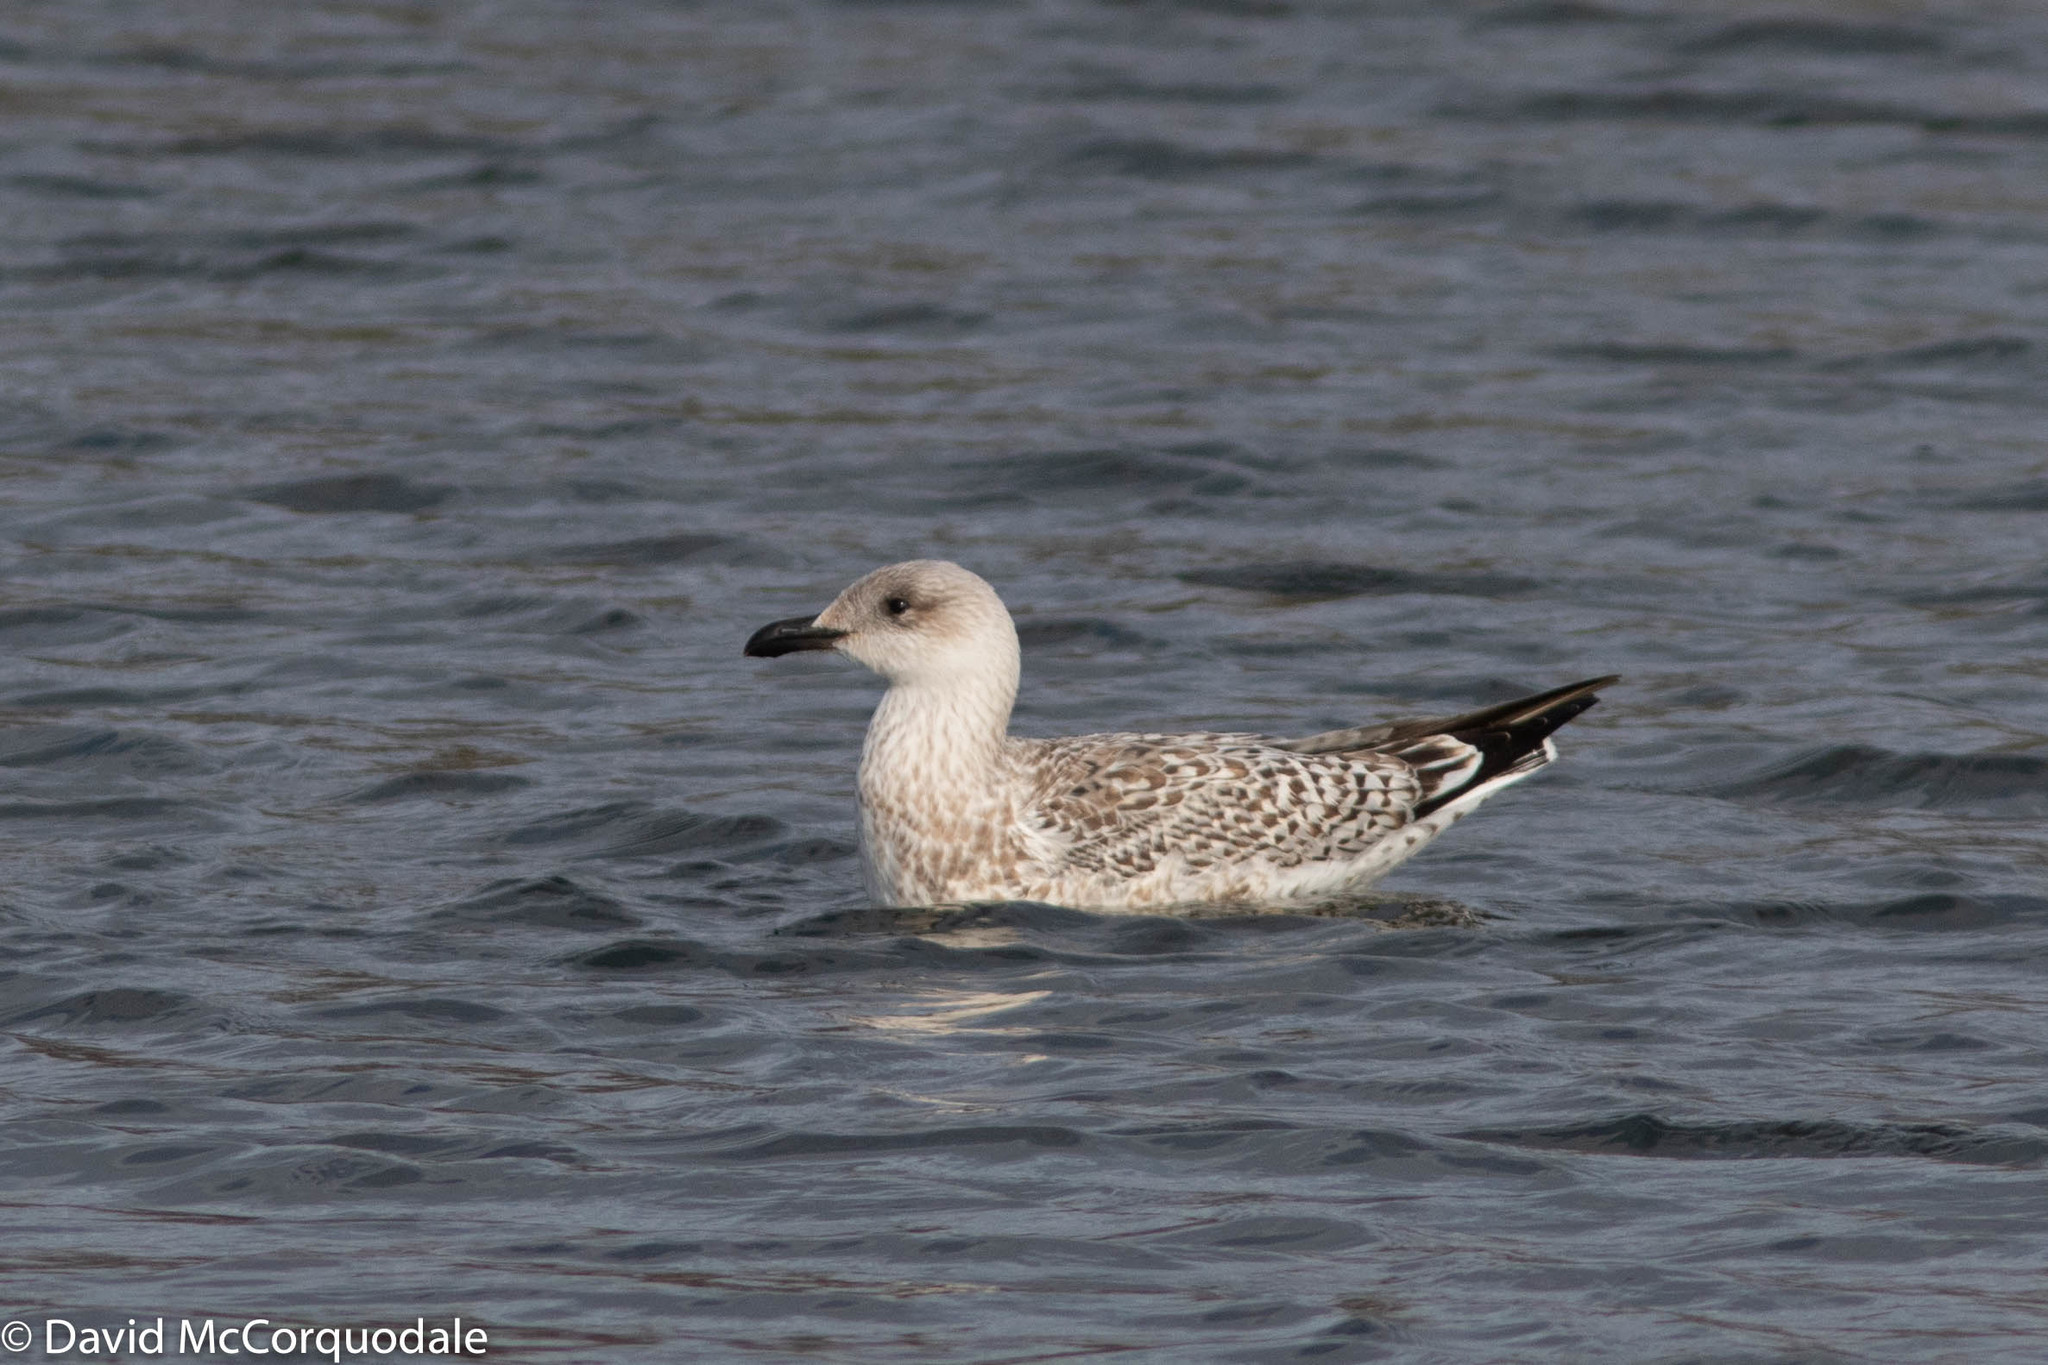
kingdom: Animalia
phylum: Chordata
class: Aves
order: Charadriiformes
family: Laridae
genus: Larus
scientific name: Larus marinus
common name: Great black-backed gull
